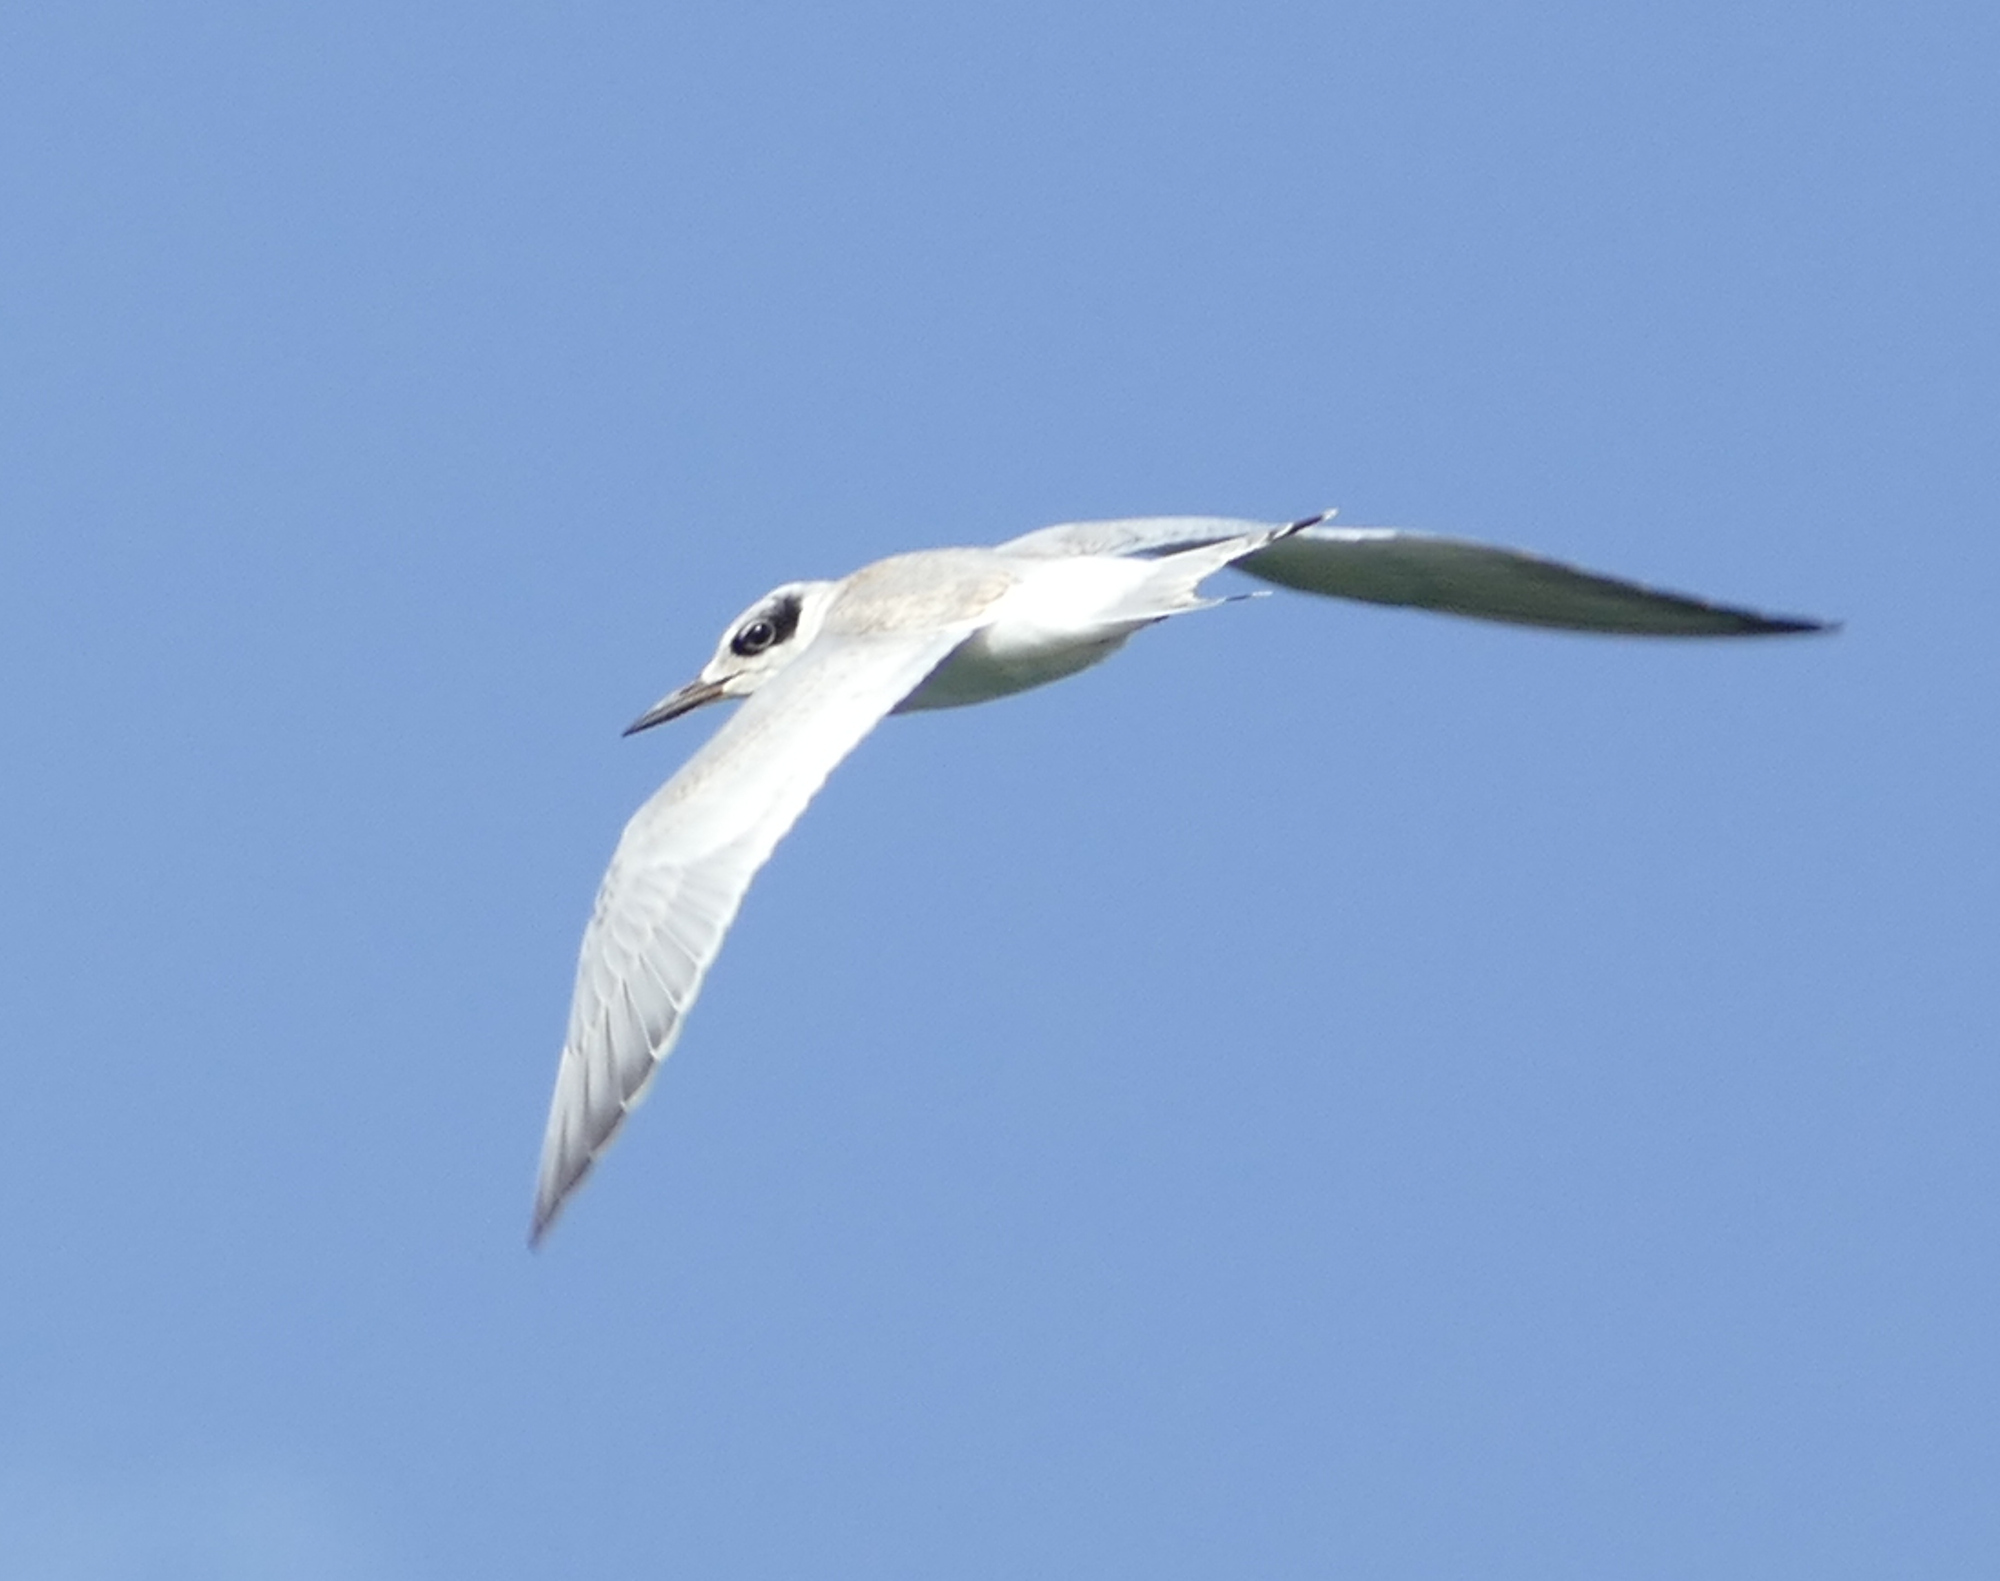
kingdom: Animalia
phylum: Chordata
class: Aves
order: Charadriiformes
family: Laridae
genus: Sterna
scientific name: Sterna forsteri
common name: Forster's tern
